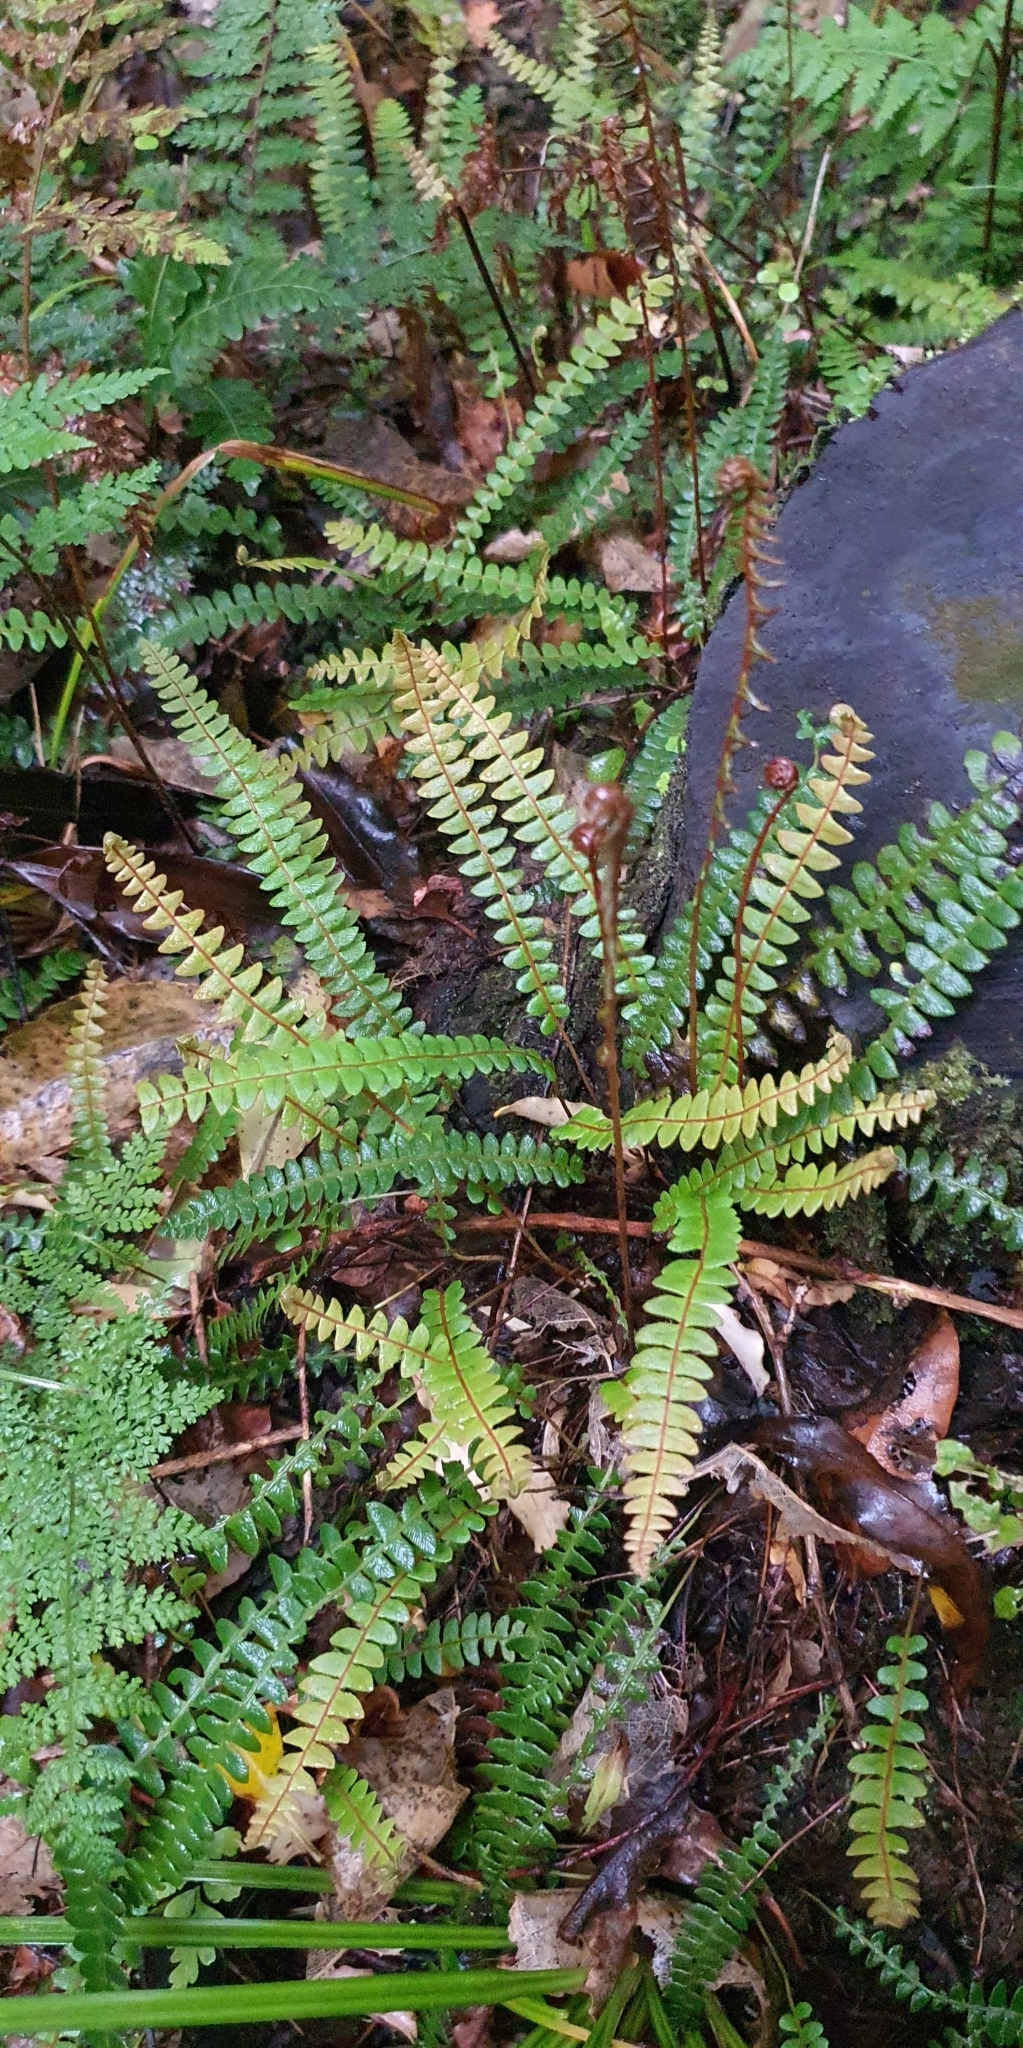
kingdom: Plantae
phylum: Tracheophyta
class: Polypodiopsida
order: Polypodiales
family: Blechnaceae
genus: Austroblechnum
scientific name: Austroblechnum penna-marina
